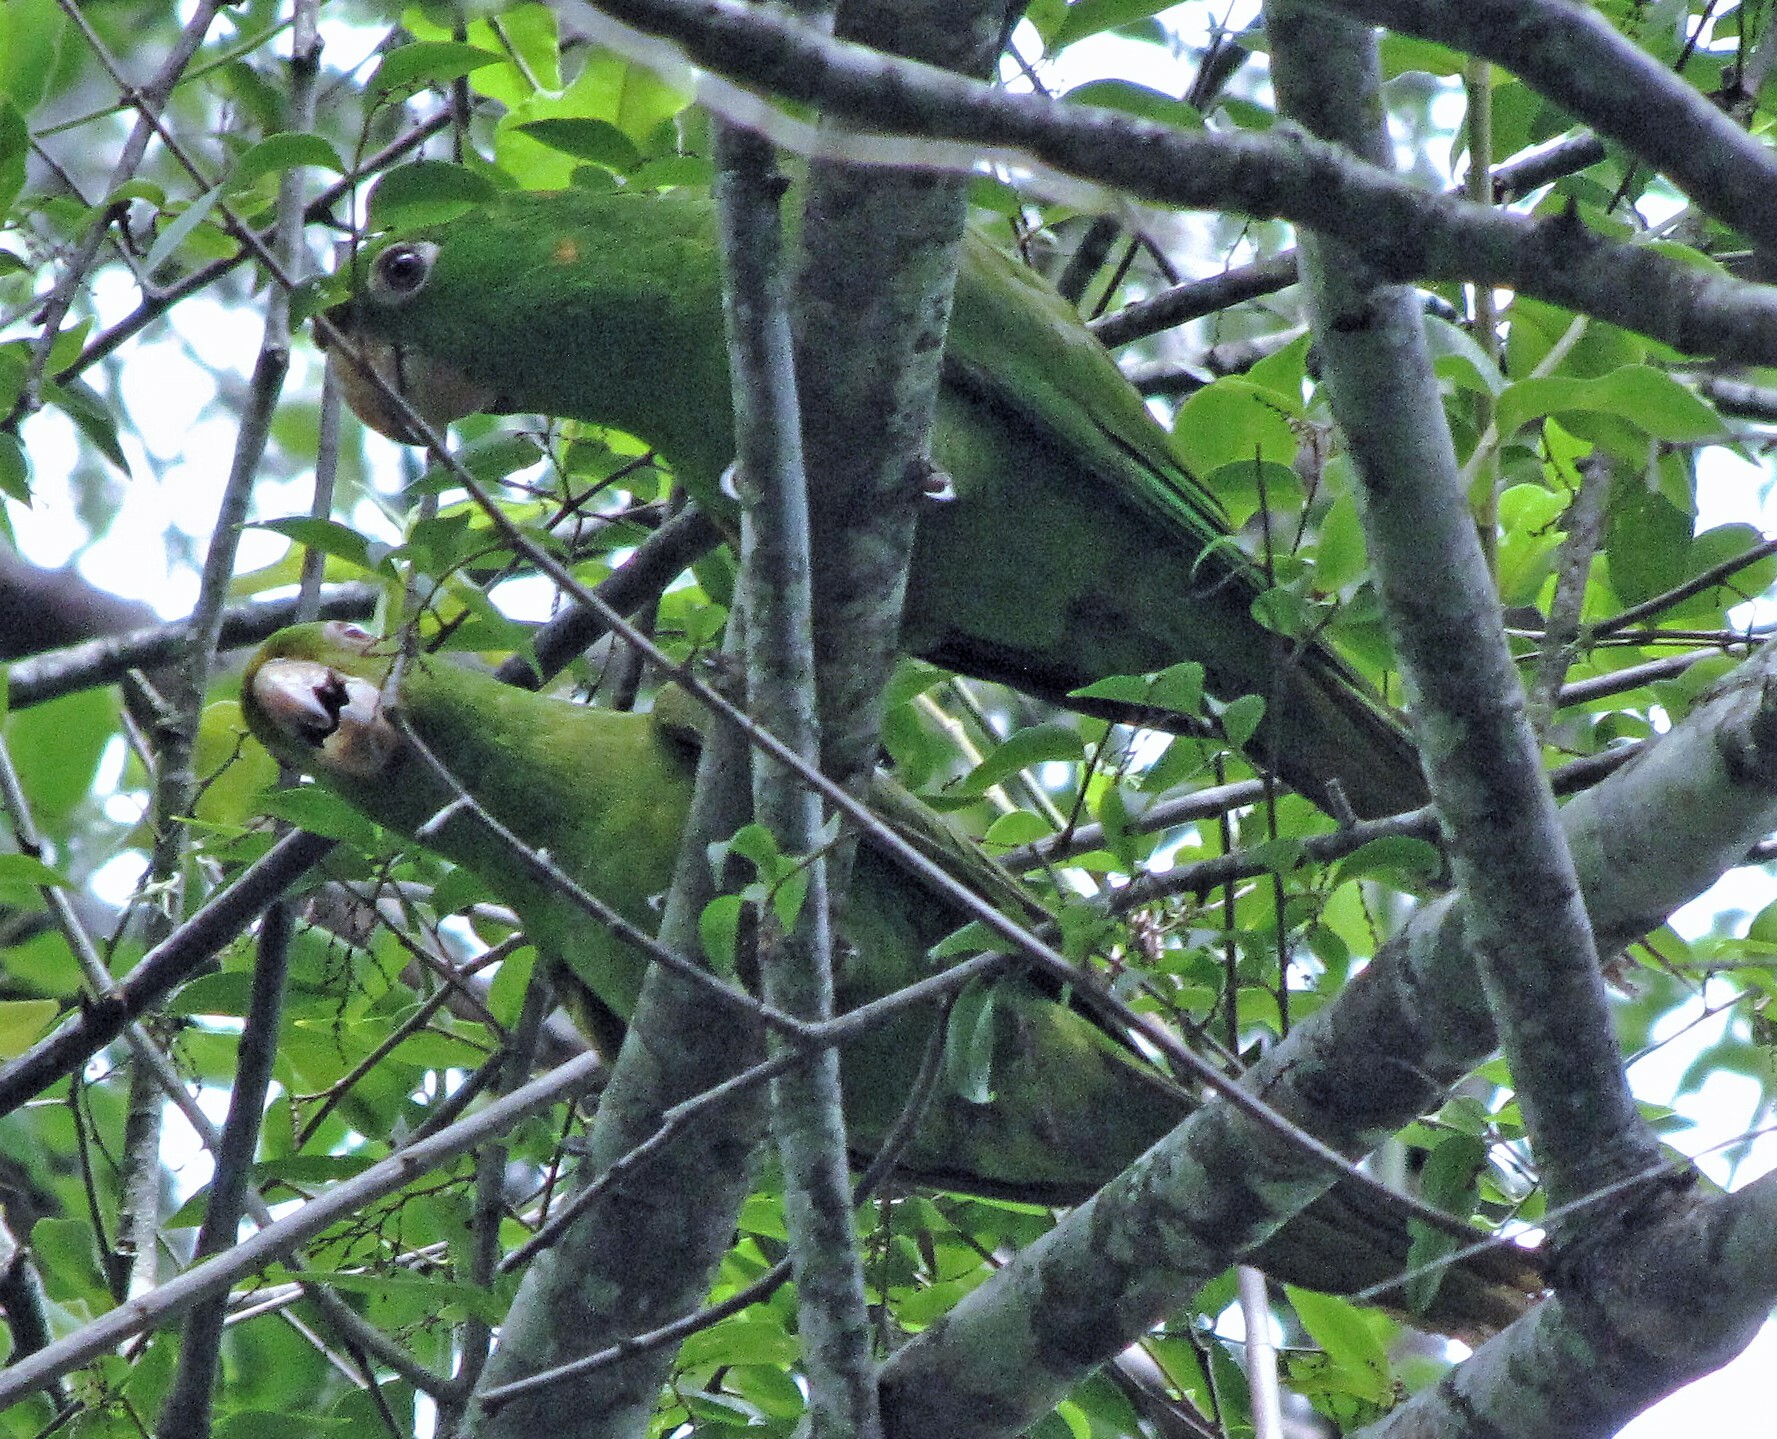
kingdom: Animalia
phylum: Chordata
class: Aves
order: Psittaciformes
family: Psittacidae
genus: Aratinga
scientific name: Aratinga leucophthalma
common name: White-eyed parakeet
